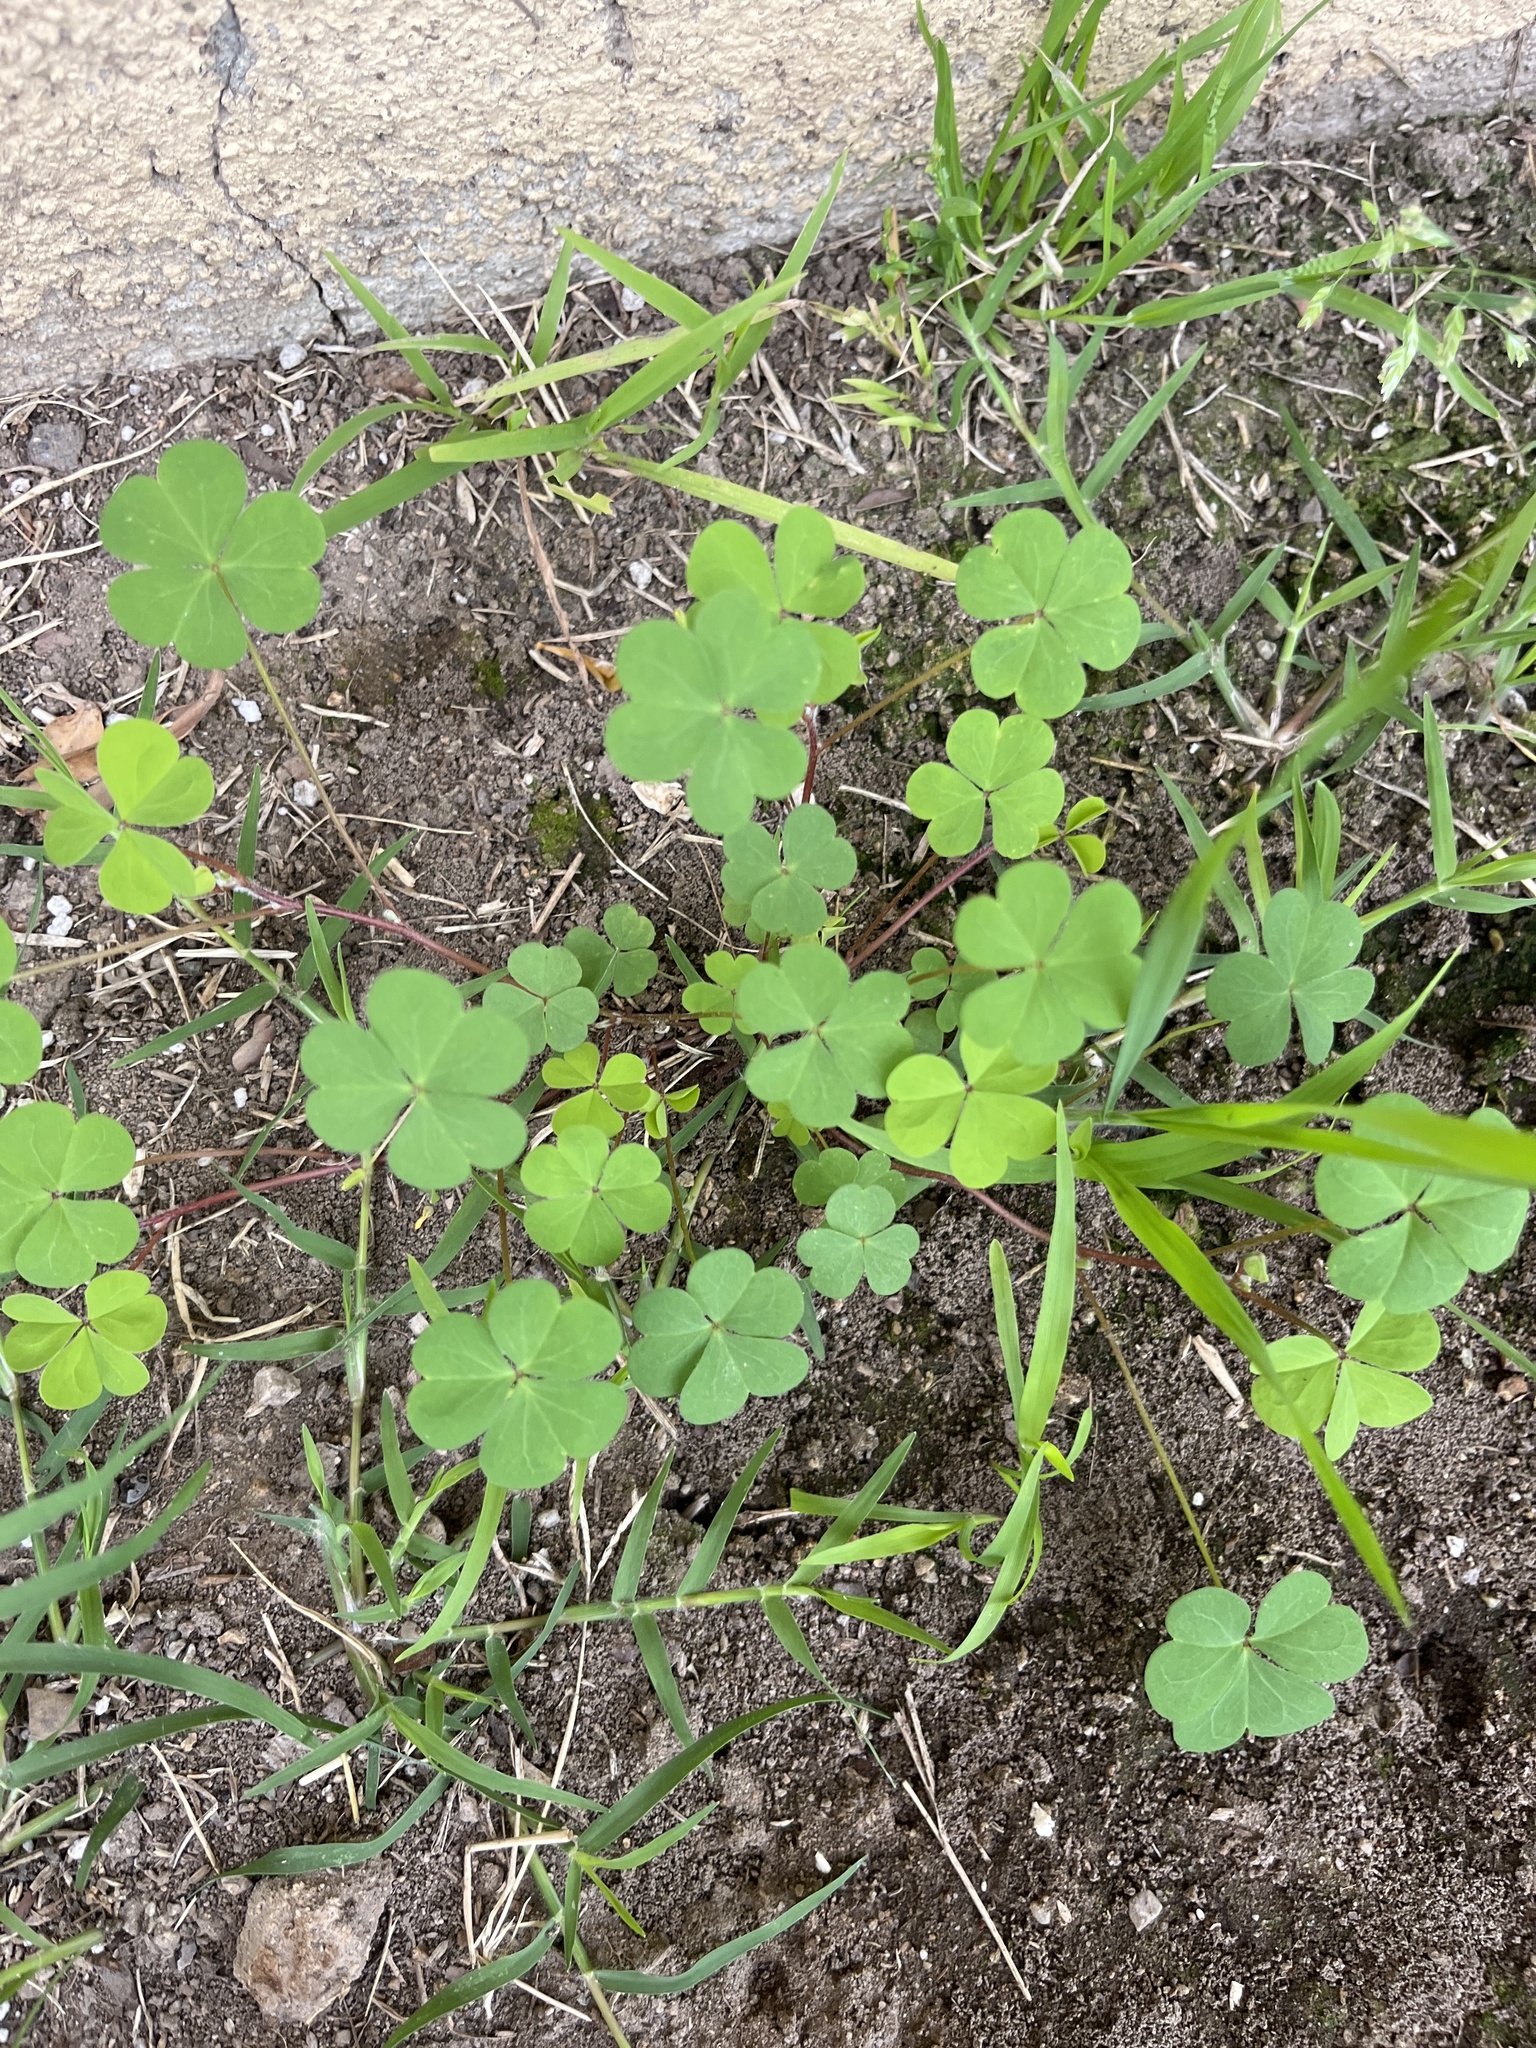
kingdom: Plantae
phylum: Tracheophyta
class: Magnoliopsida
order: Oxalidales
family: Oxalidaceae
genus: Oxalis
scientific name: Oxalis
